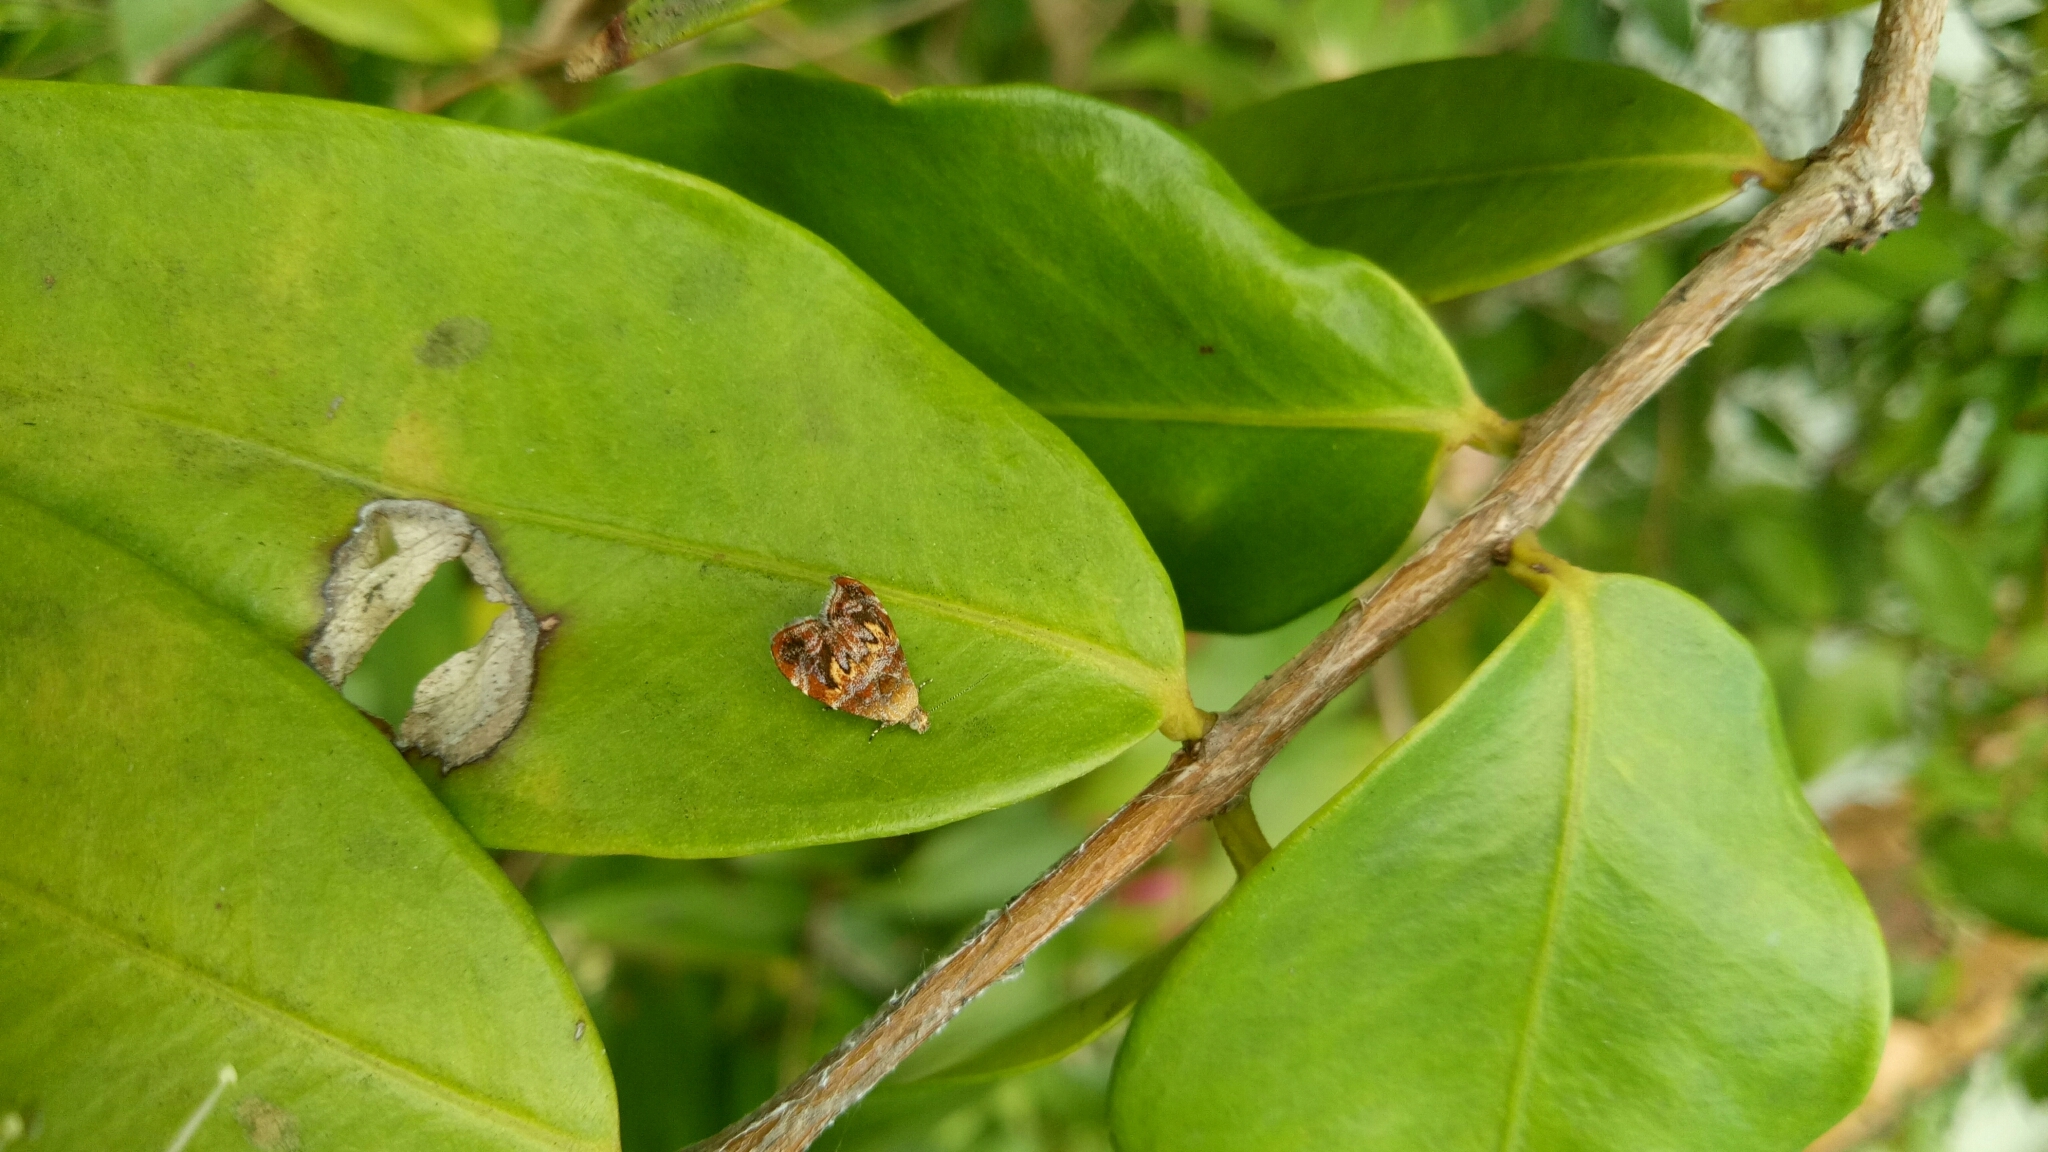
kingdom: Animalia
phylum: Arthropoda
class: Insecta
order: Lepidoptera
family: Choreutidae
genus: Choreutis
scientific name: Choreutis sexfasciella
